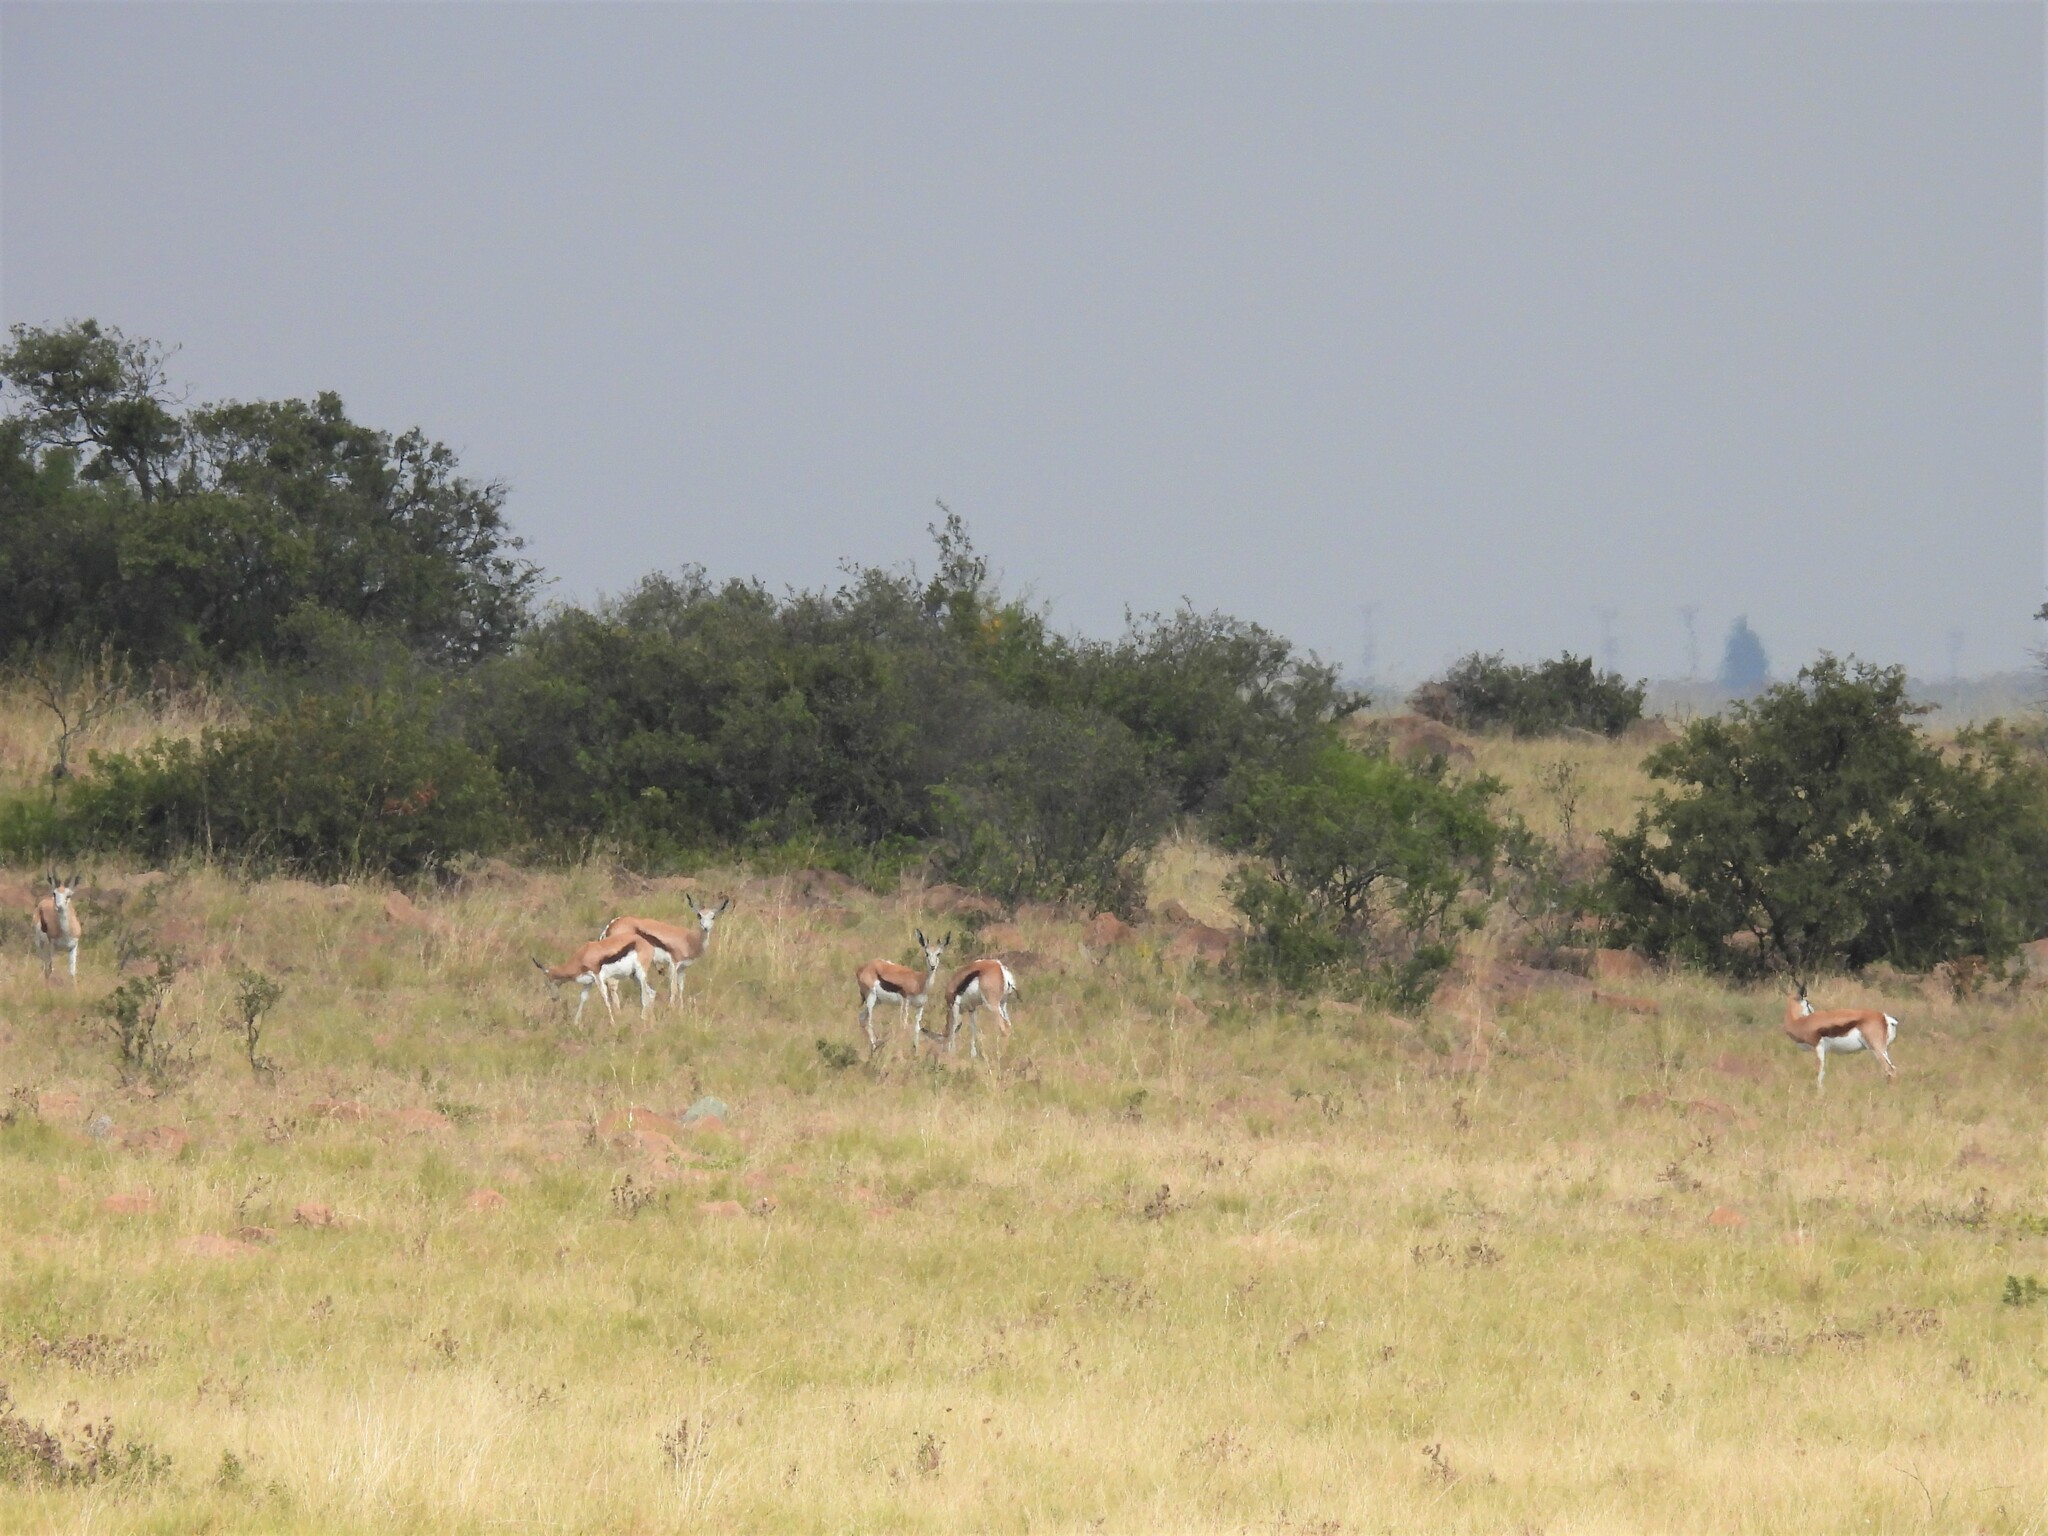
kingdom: Animalia
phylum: Chordata
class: Mammalia
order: Artiodactyla
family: Bovidae
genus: Antidorcas
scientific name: Antidorcas marsupialis
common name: Springbok
